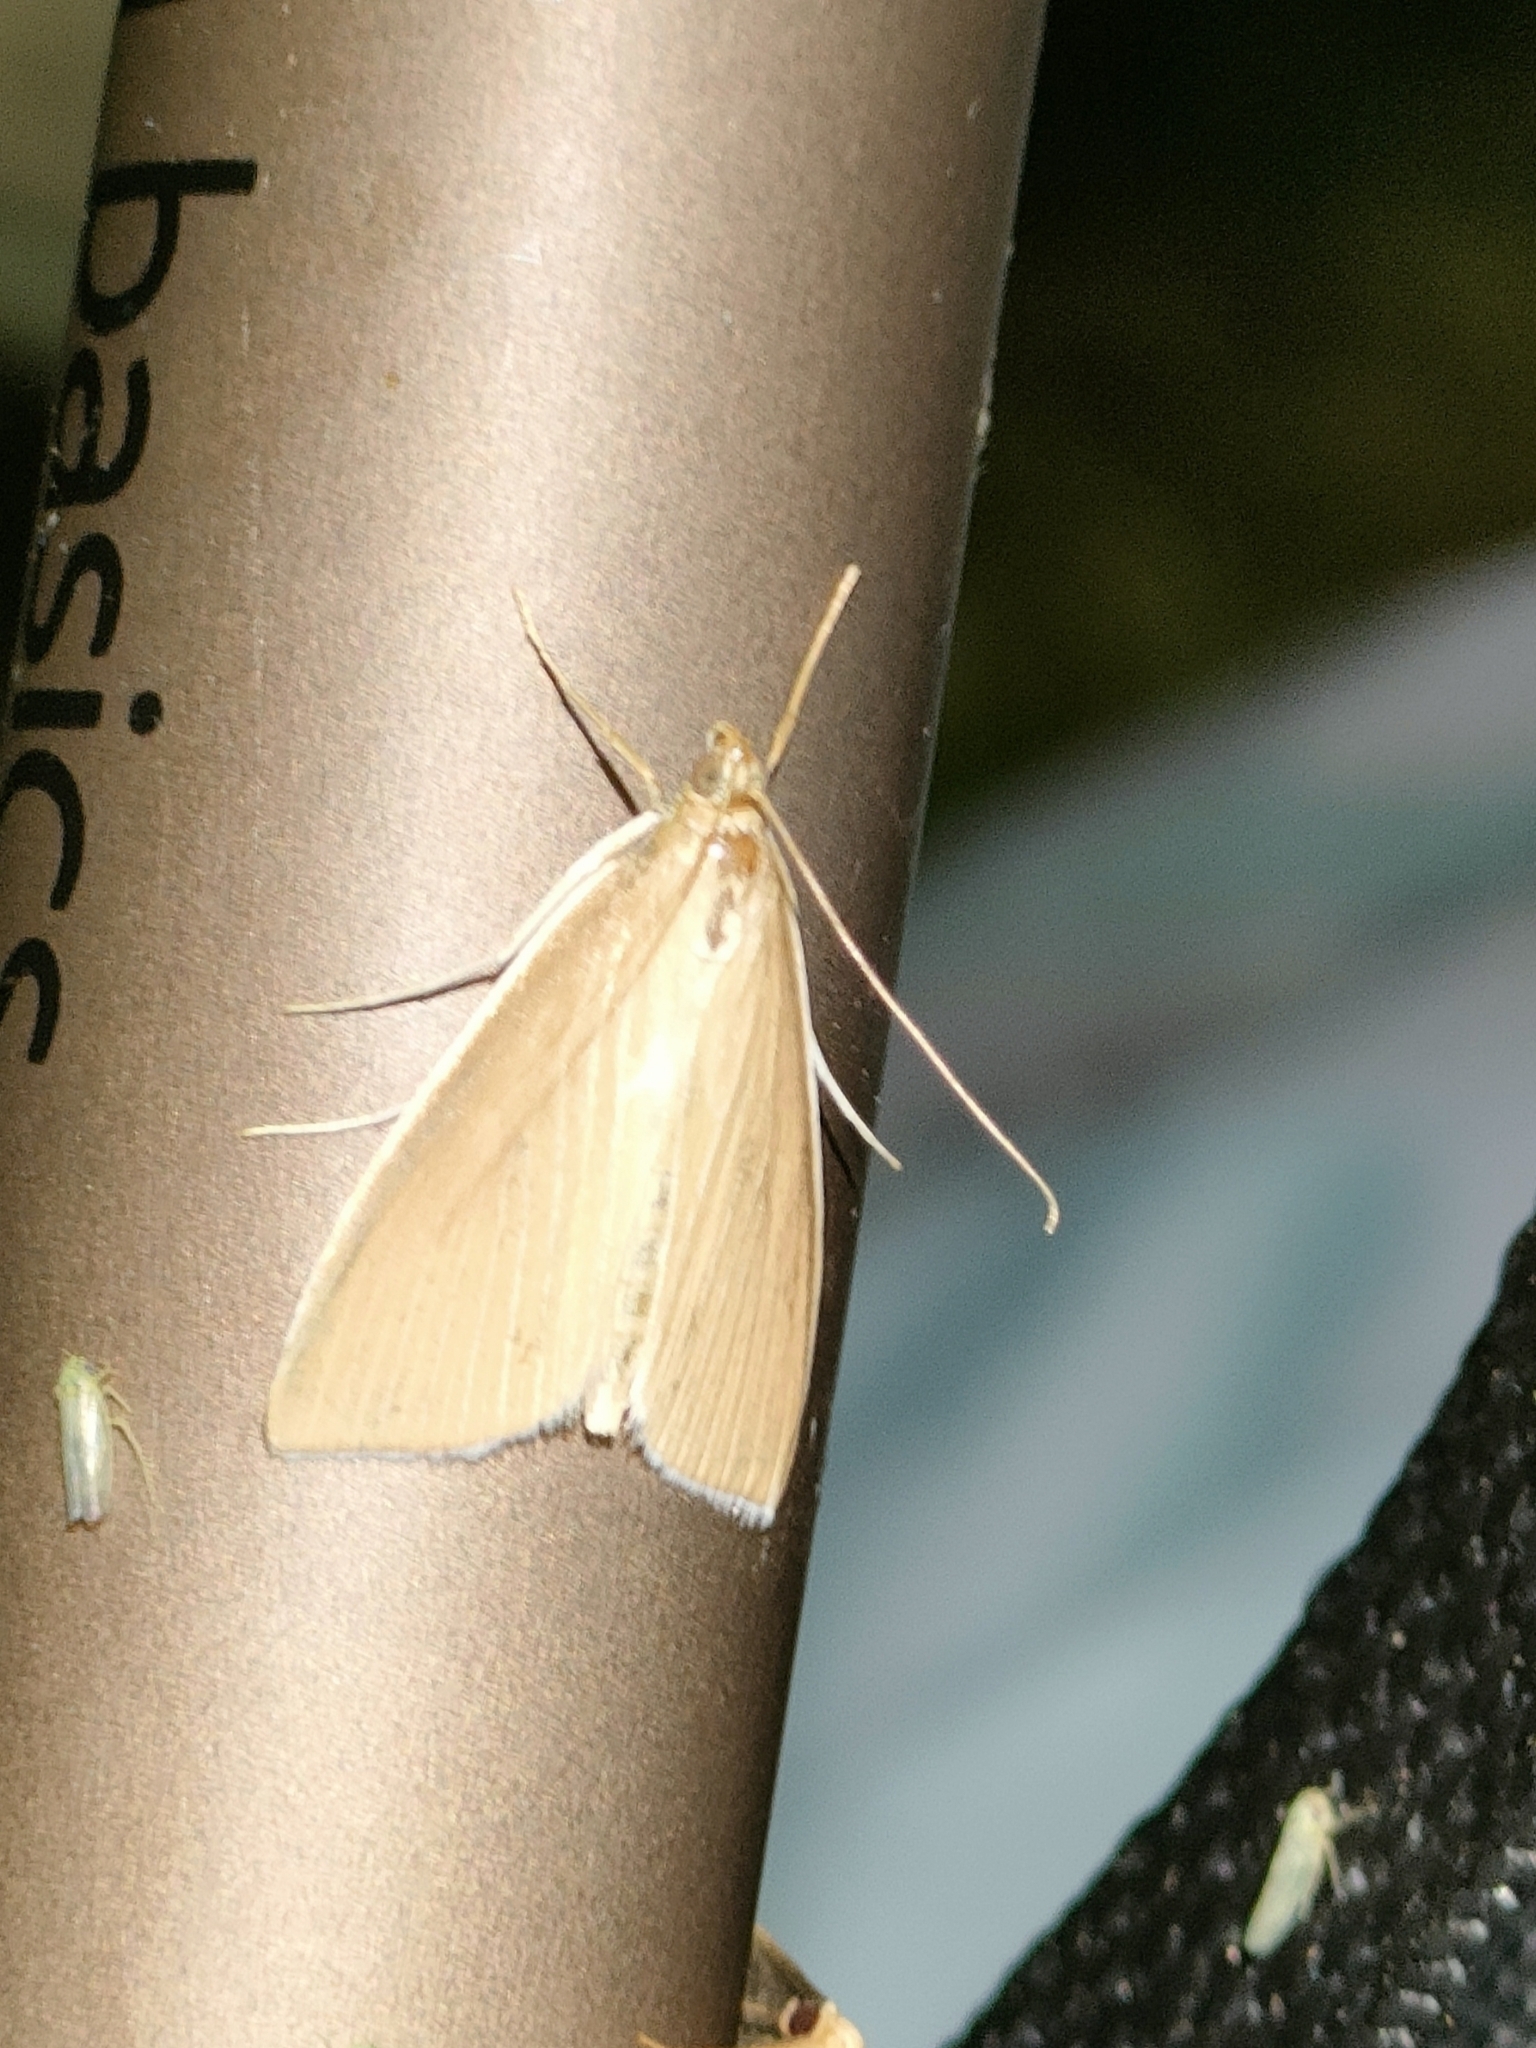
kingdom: Animalia
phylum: Arthropoda
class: Insecta
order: Lepidoptera
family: Crambidae
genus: Calamochrous
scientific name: Calamochrous Sclerocona acutella
